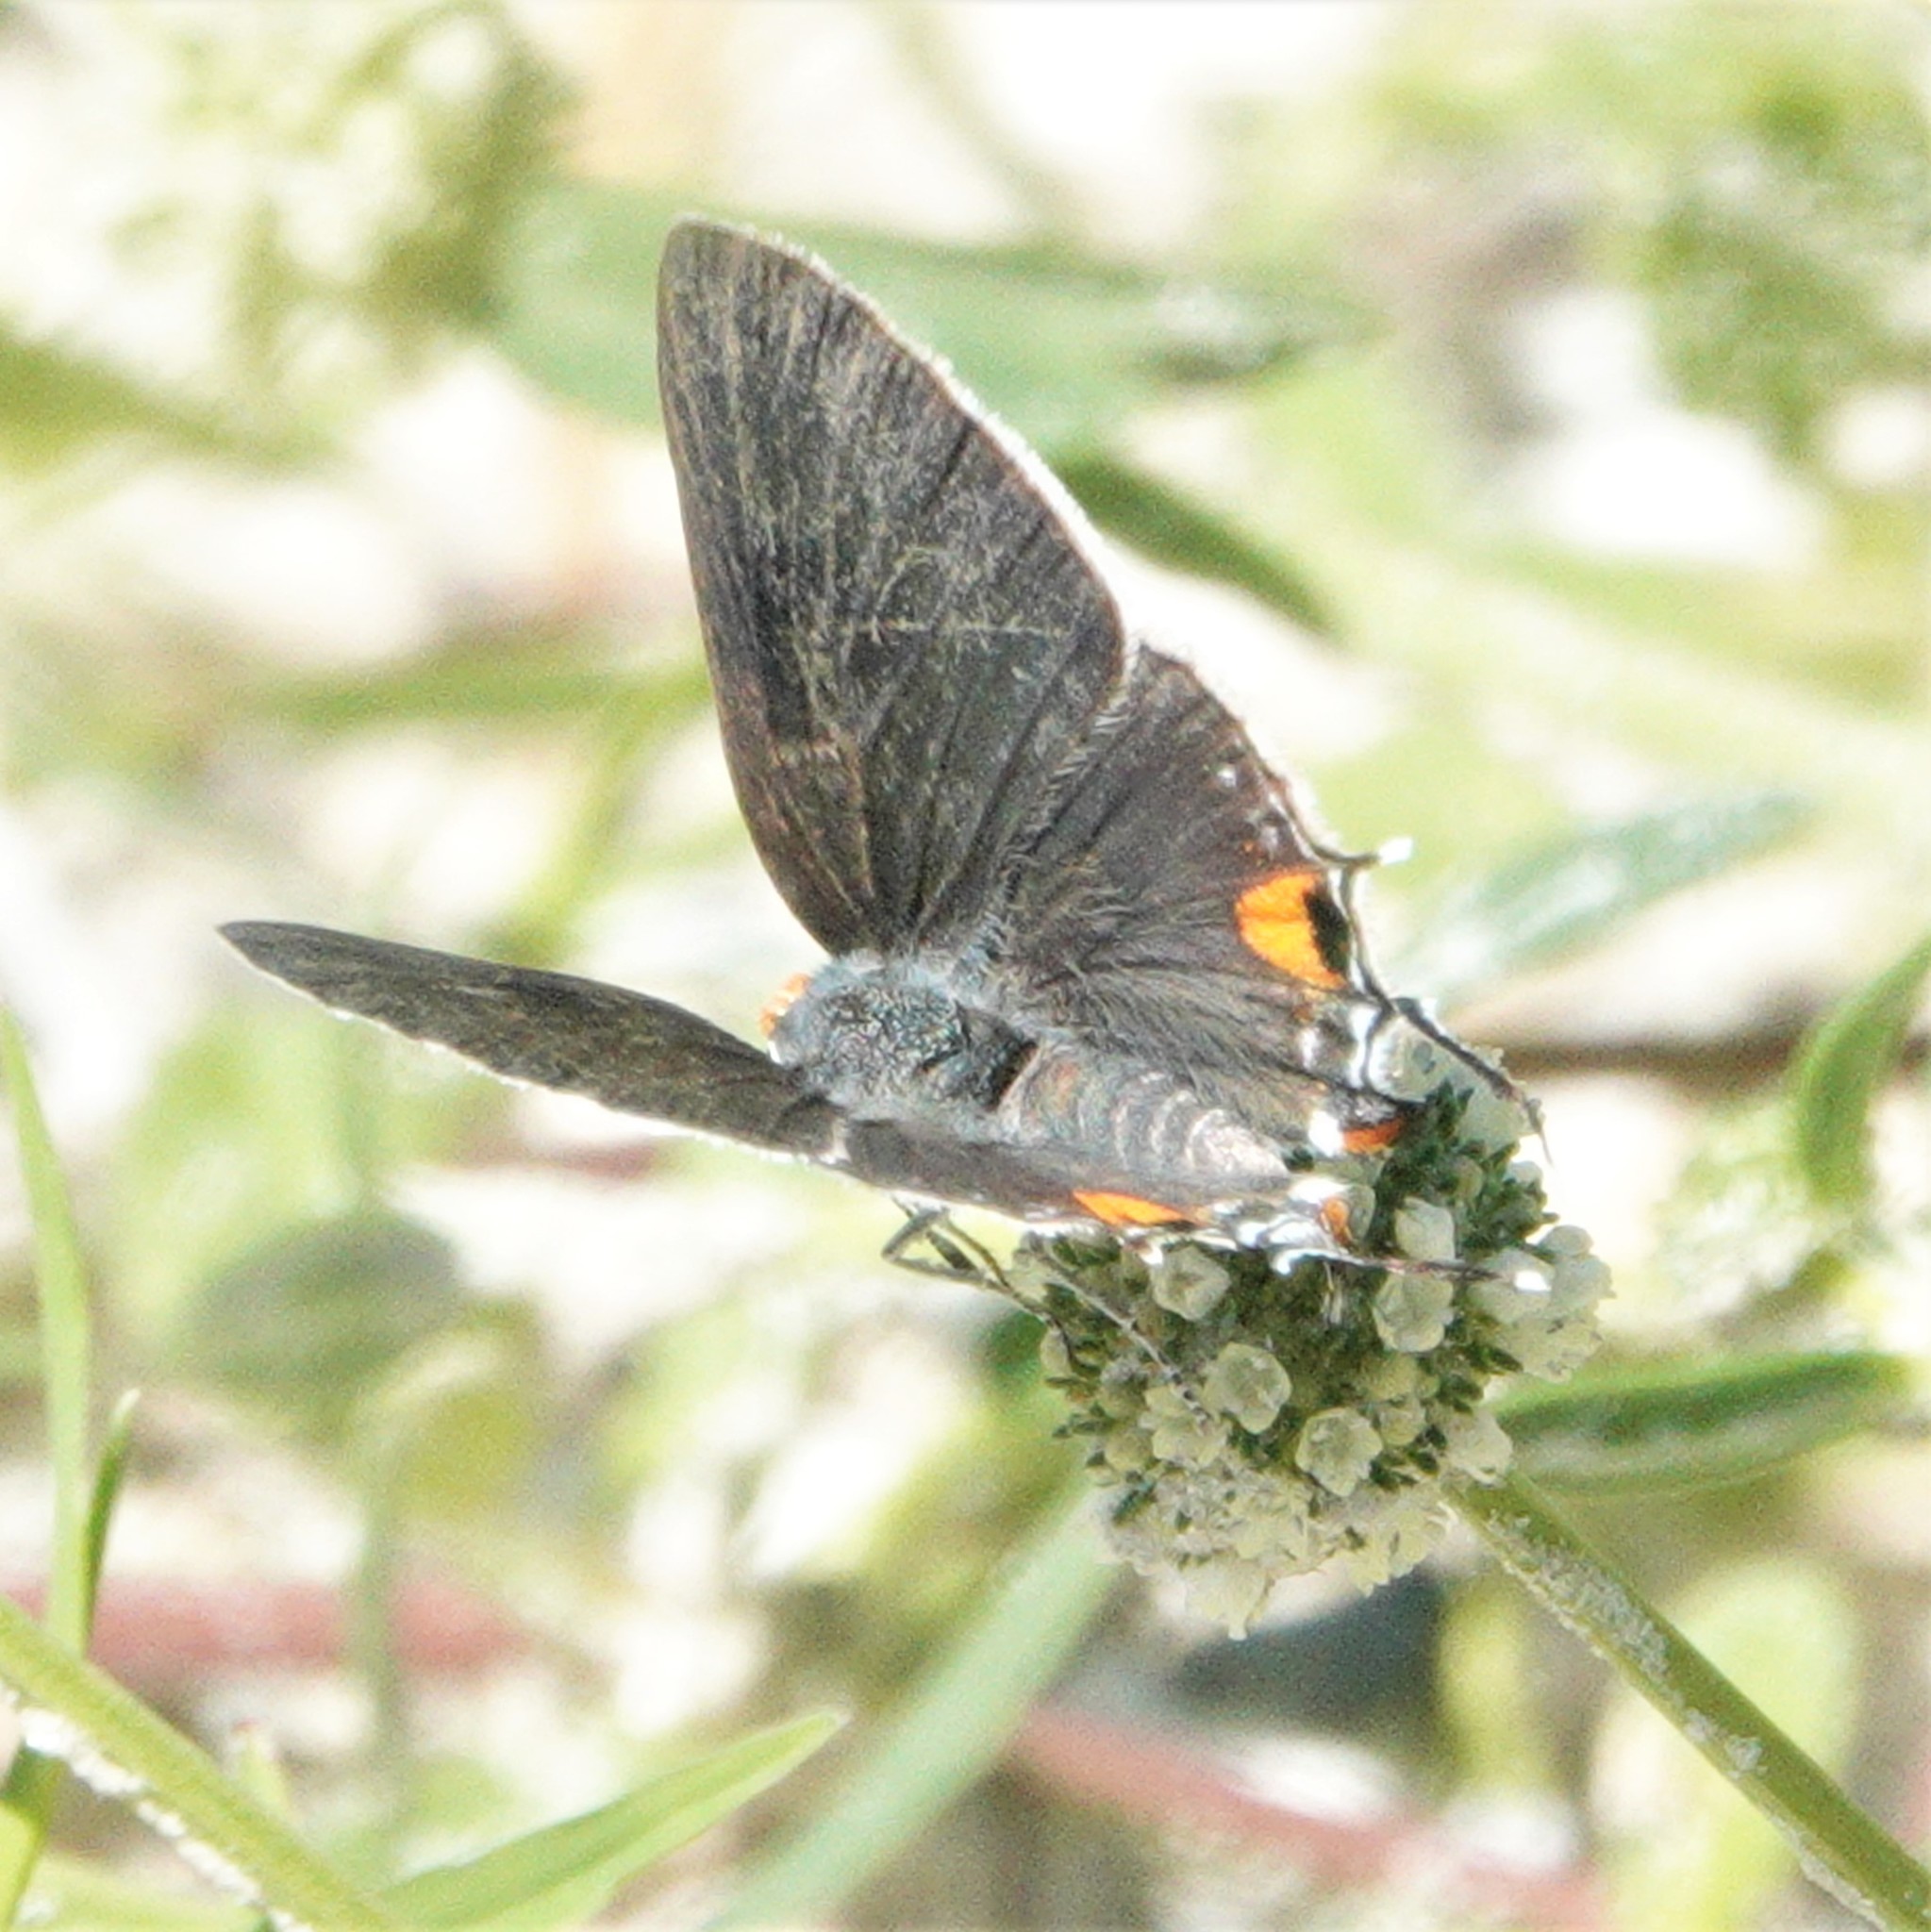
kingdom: Animalia
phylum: Arthropoda
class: Insecta
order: Lepidoptera
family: Lycaenidae
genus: Strymon
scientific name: Strymon melinus
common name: Gray hairstreak
